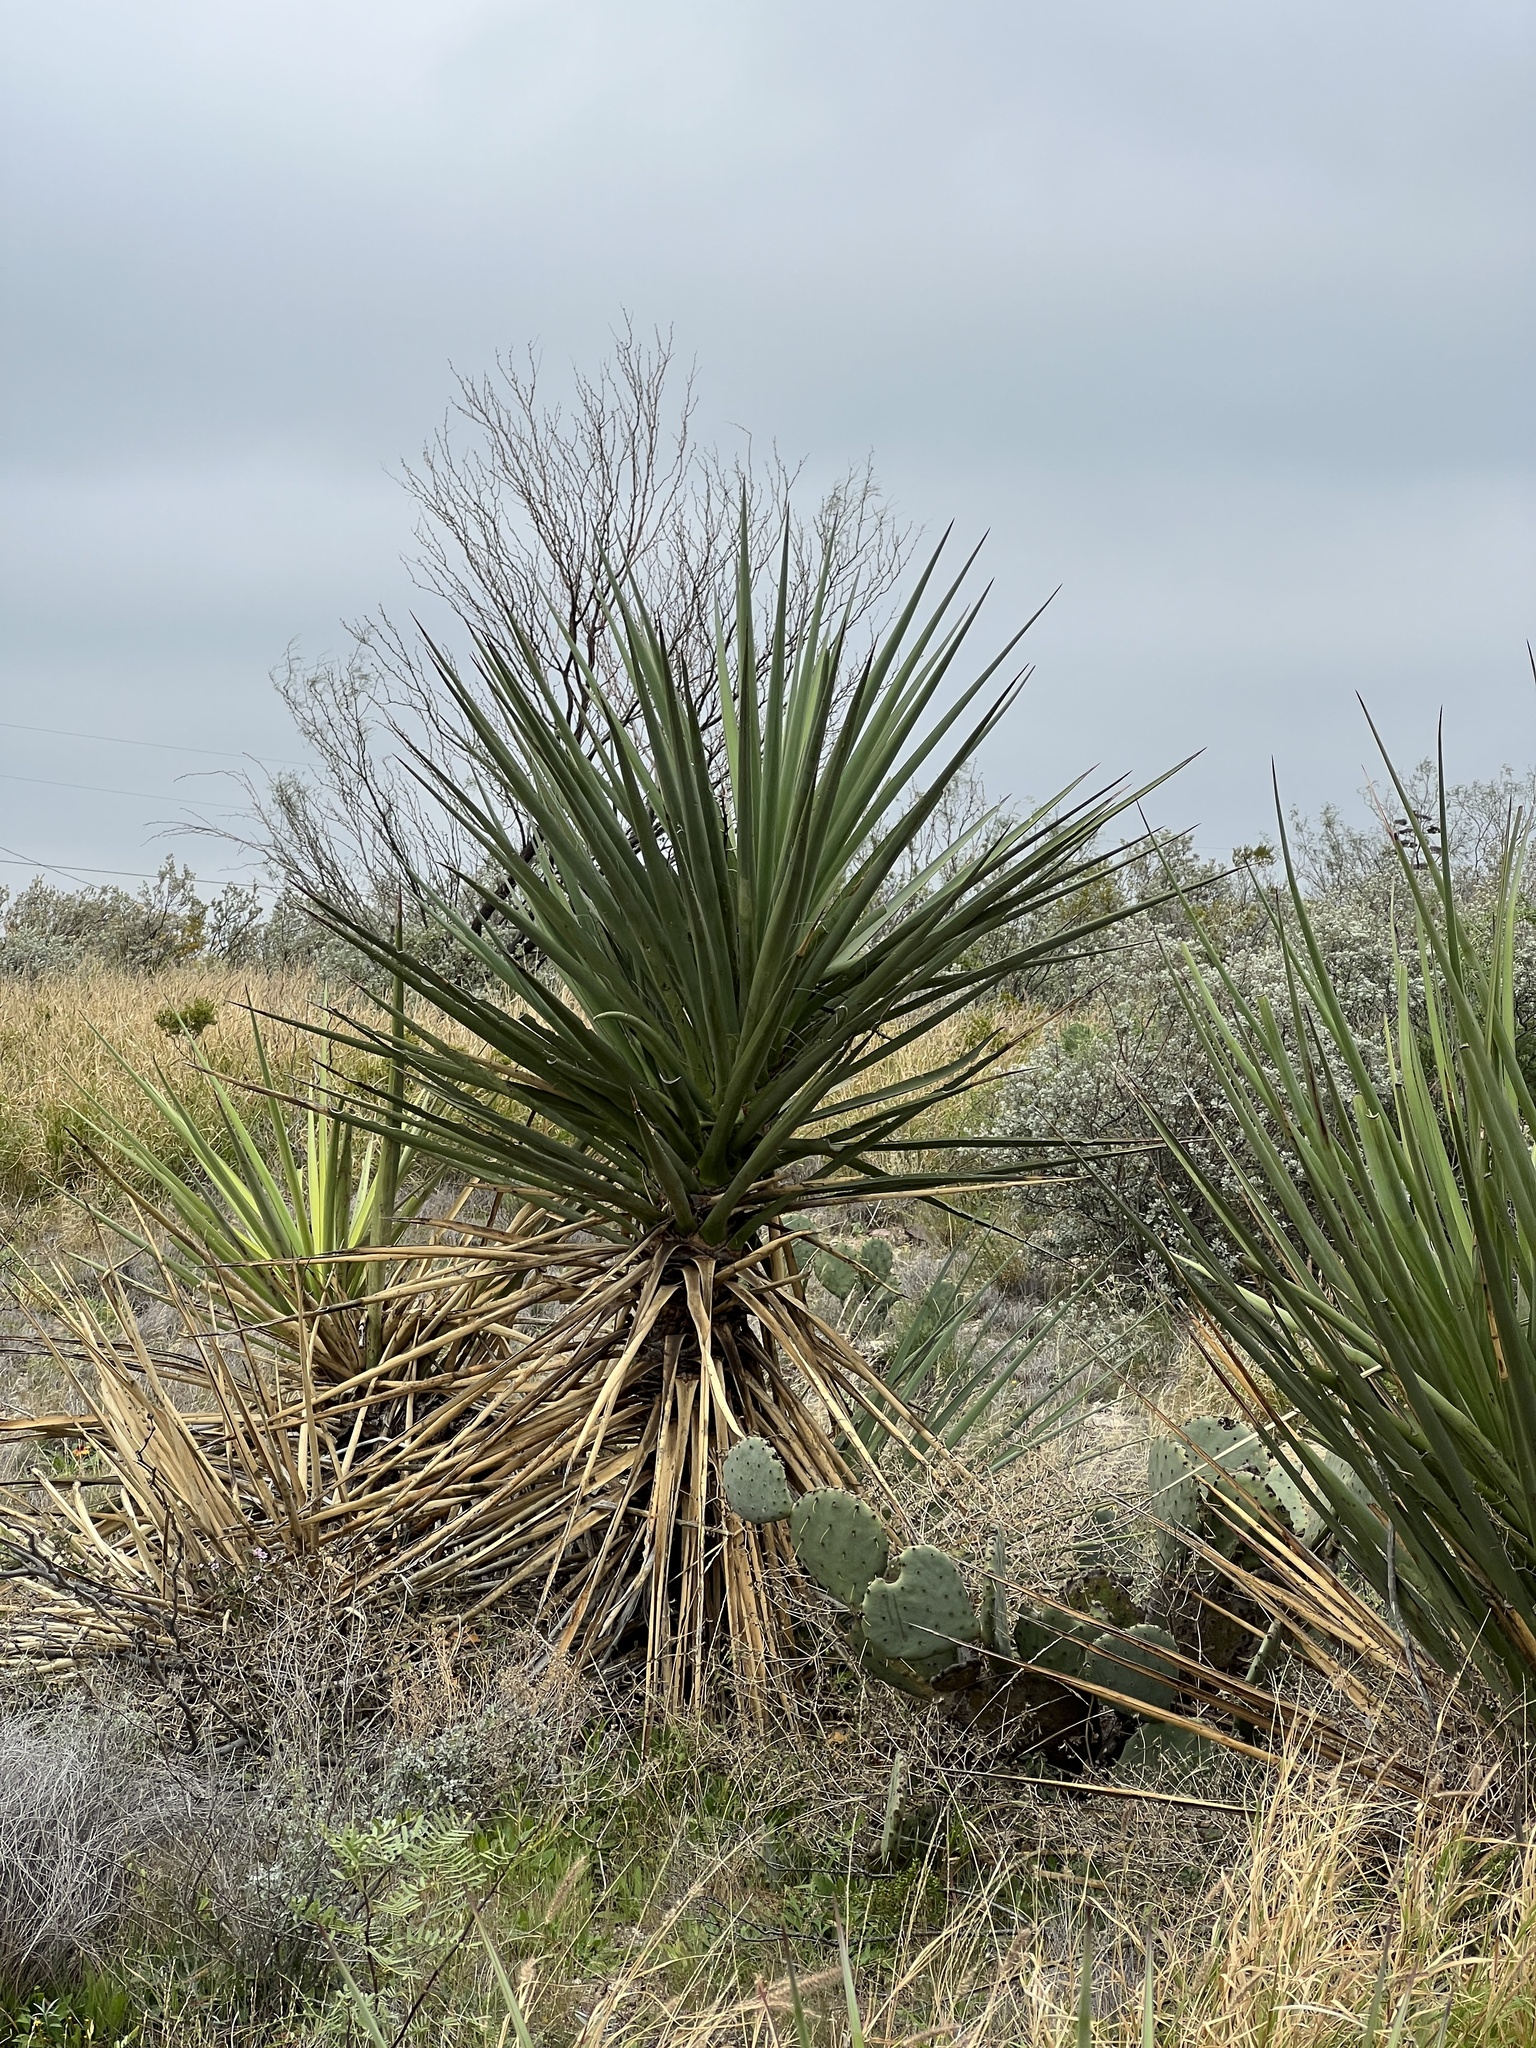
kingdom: Plantae
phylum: Tracheophyta
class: Liliopsida
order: Asparagales
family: Asparagaceae
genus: Yucca
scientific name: Yucca treculiana
